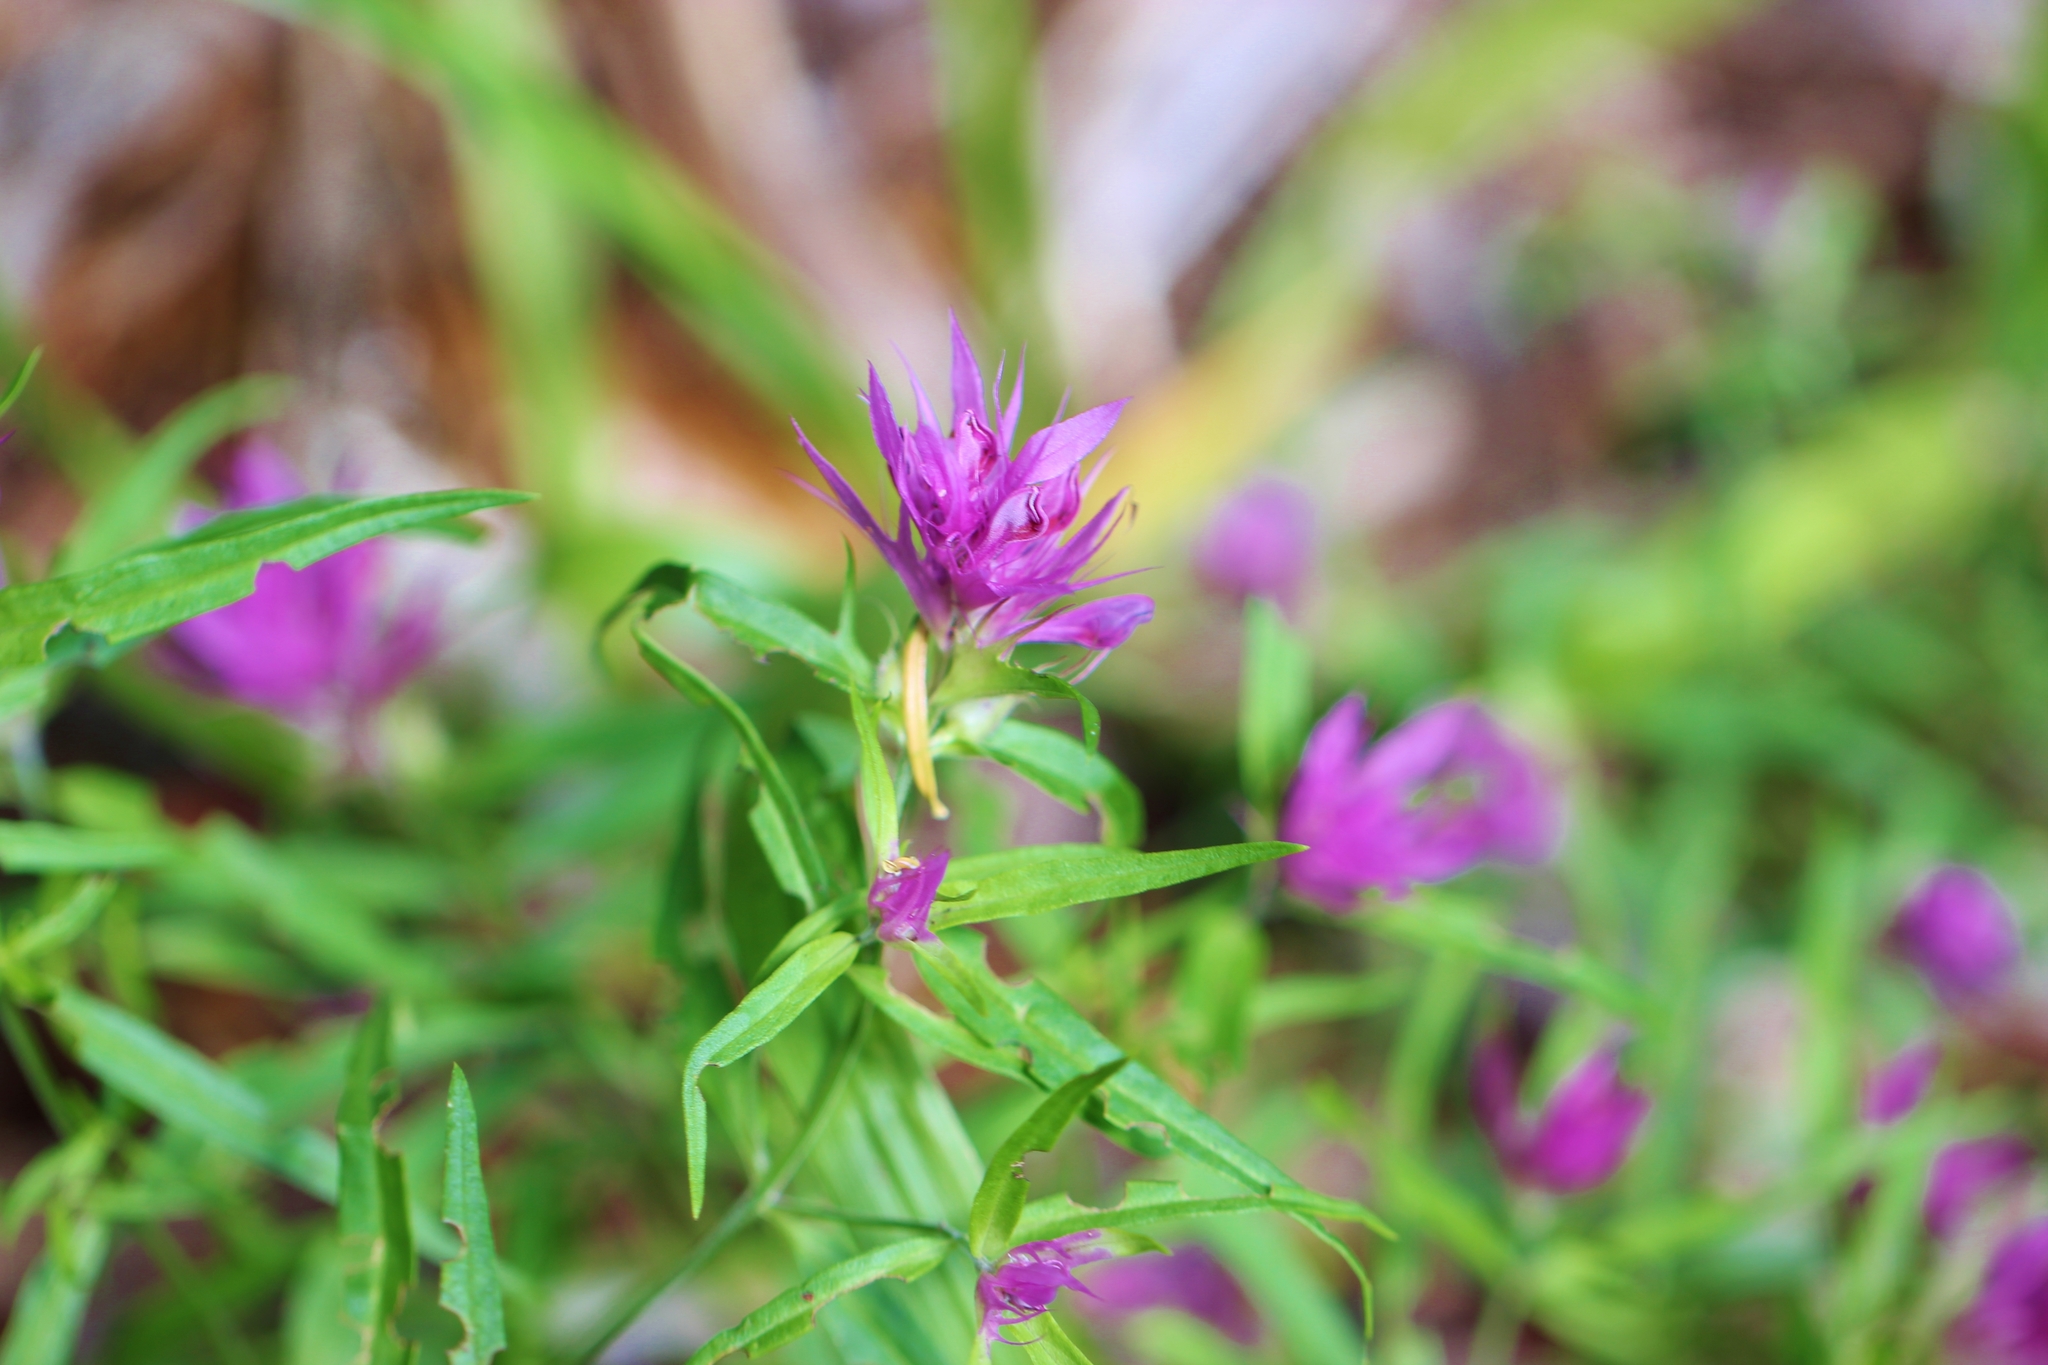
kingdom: Plantae
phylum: Tracheophyta
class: Magnoliopsida
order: Lamiales
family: Orobanchaceae
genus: Melampyrum
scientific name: Melampyrum arvense
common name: Field cow-wheat
